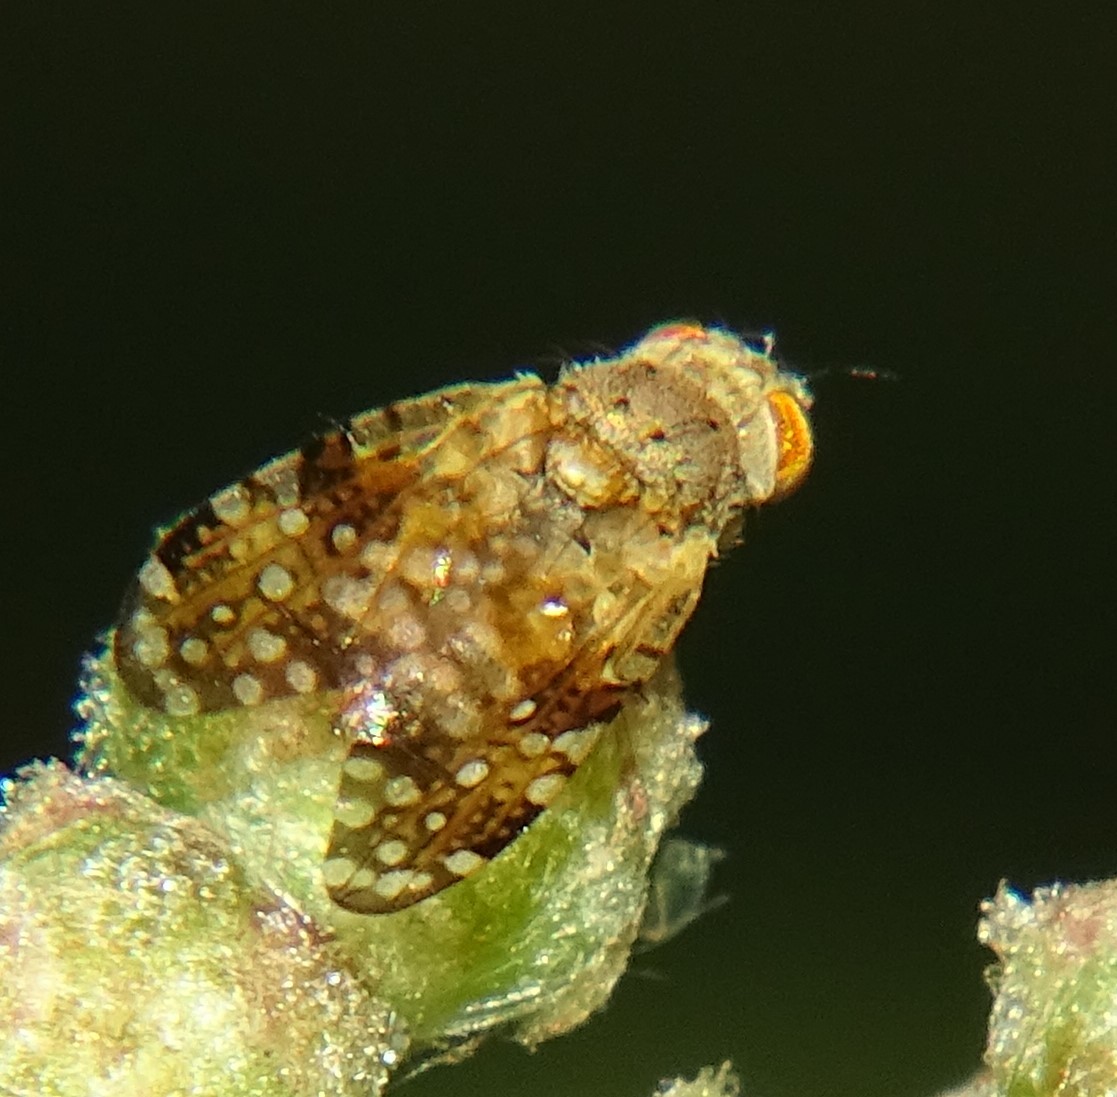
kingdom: Animalia
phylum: Arthropoda
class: Insecta
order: Diptera
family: Tephritidae
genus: Acinia
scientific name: Acinia picturata
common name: Sourbush seed fly
